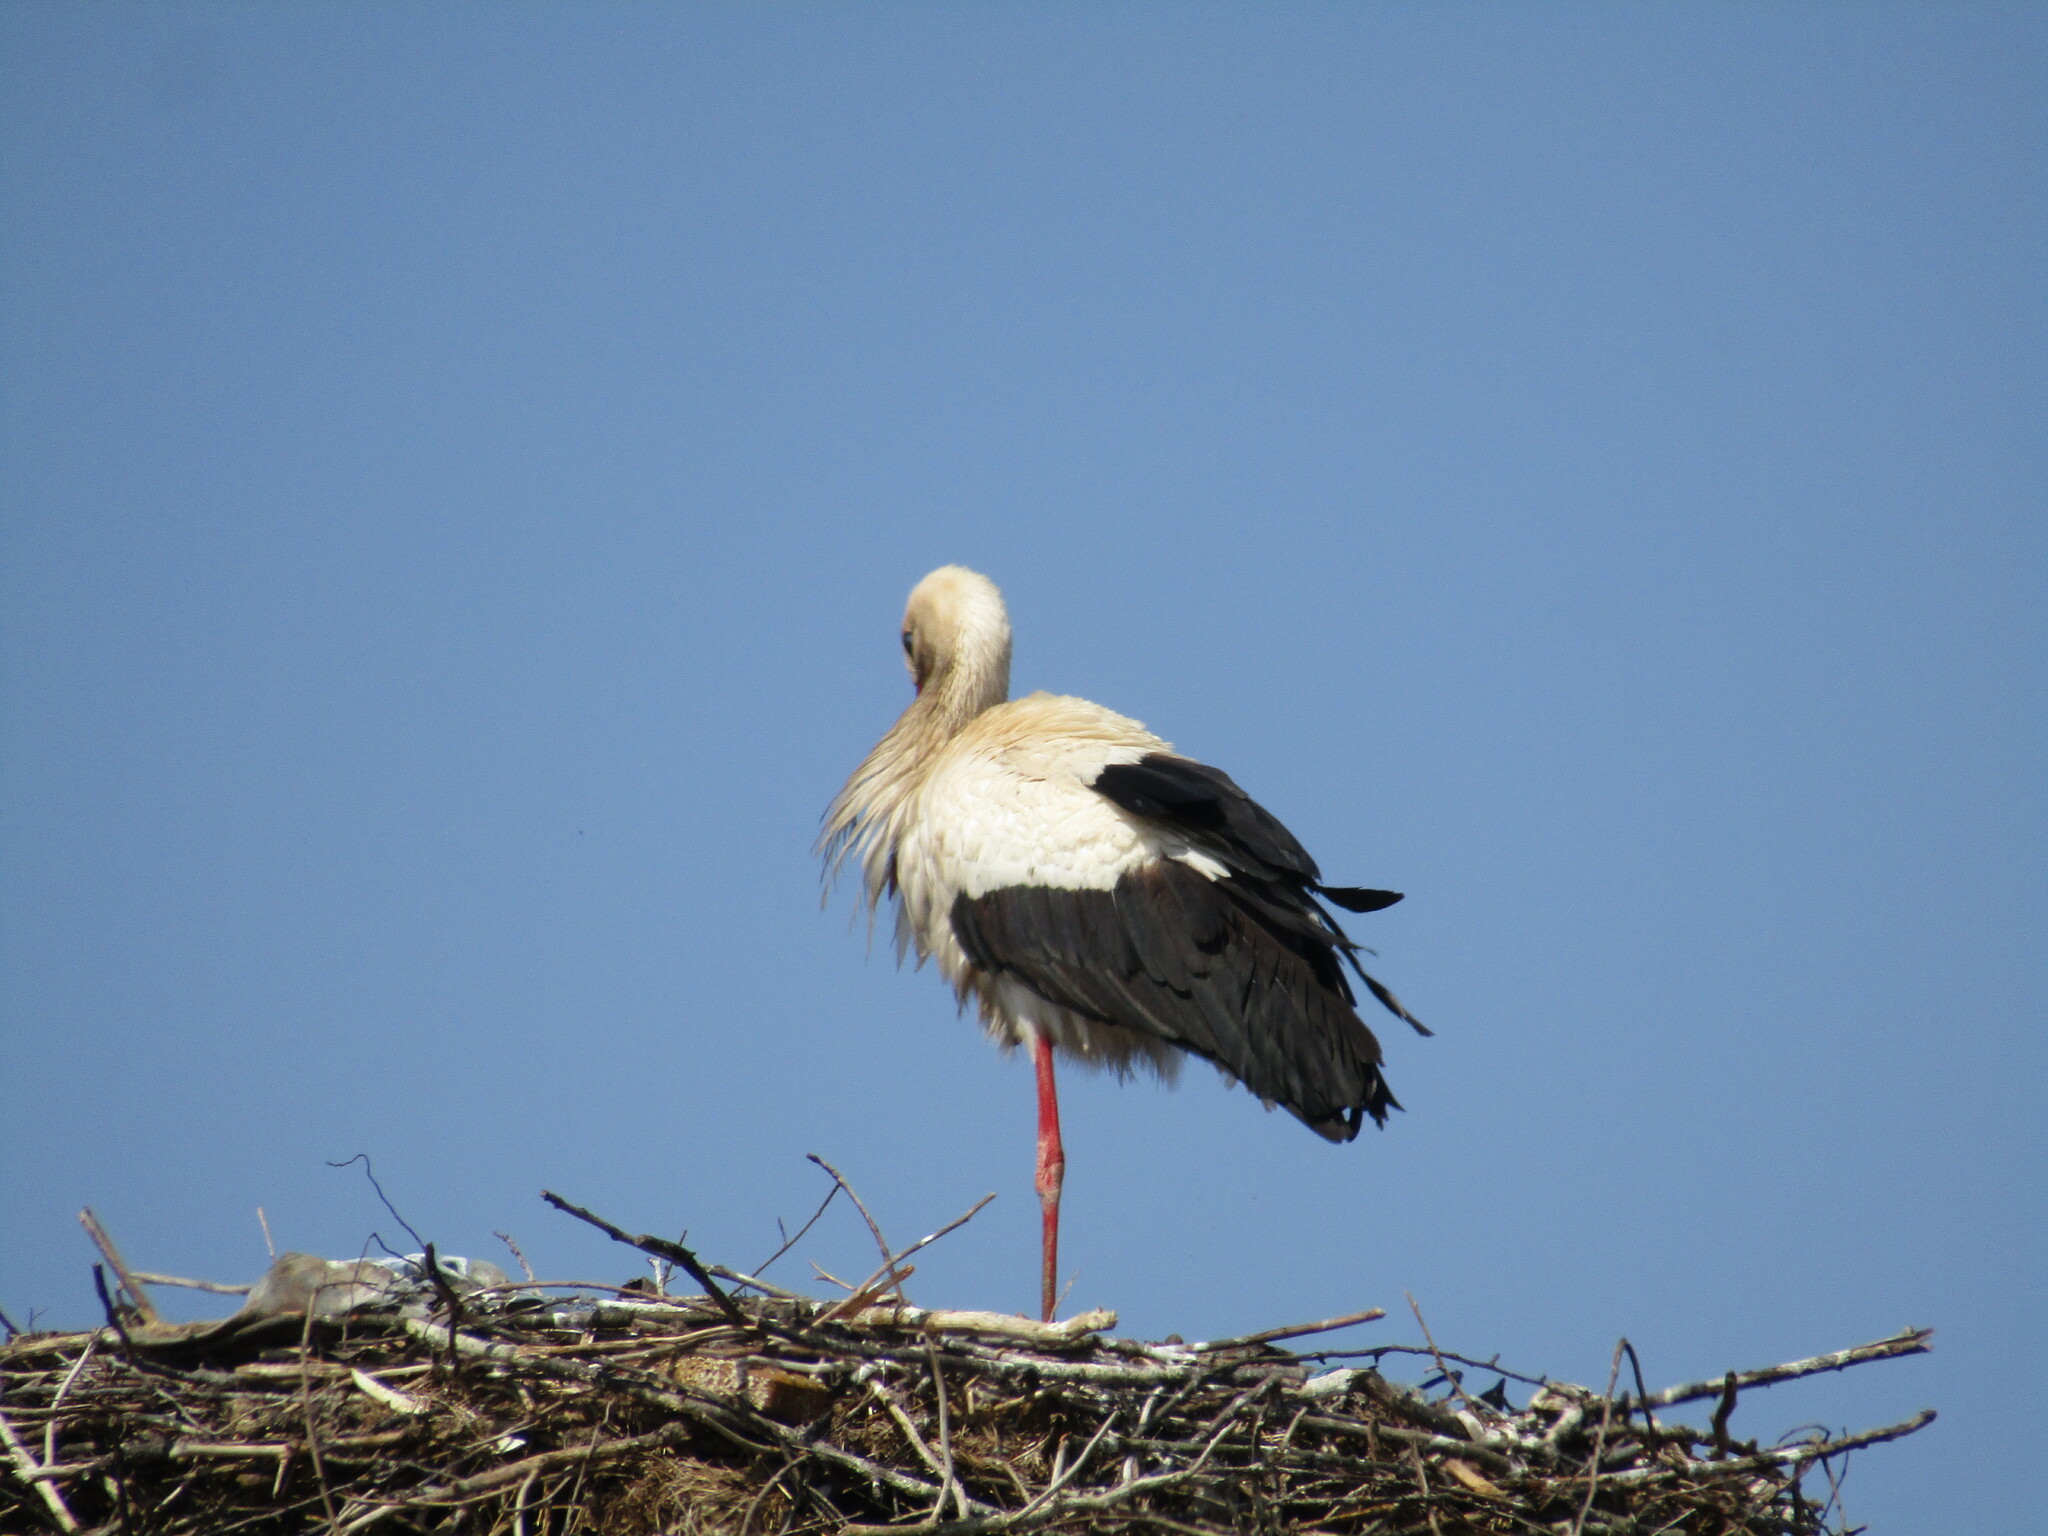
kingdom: Animalia
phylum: Chordata
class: Aves
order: Ciconiiformes
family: Ciconiidae
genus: Ciconia
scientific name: Ciconia ciconia
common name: White stork
